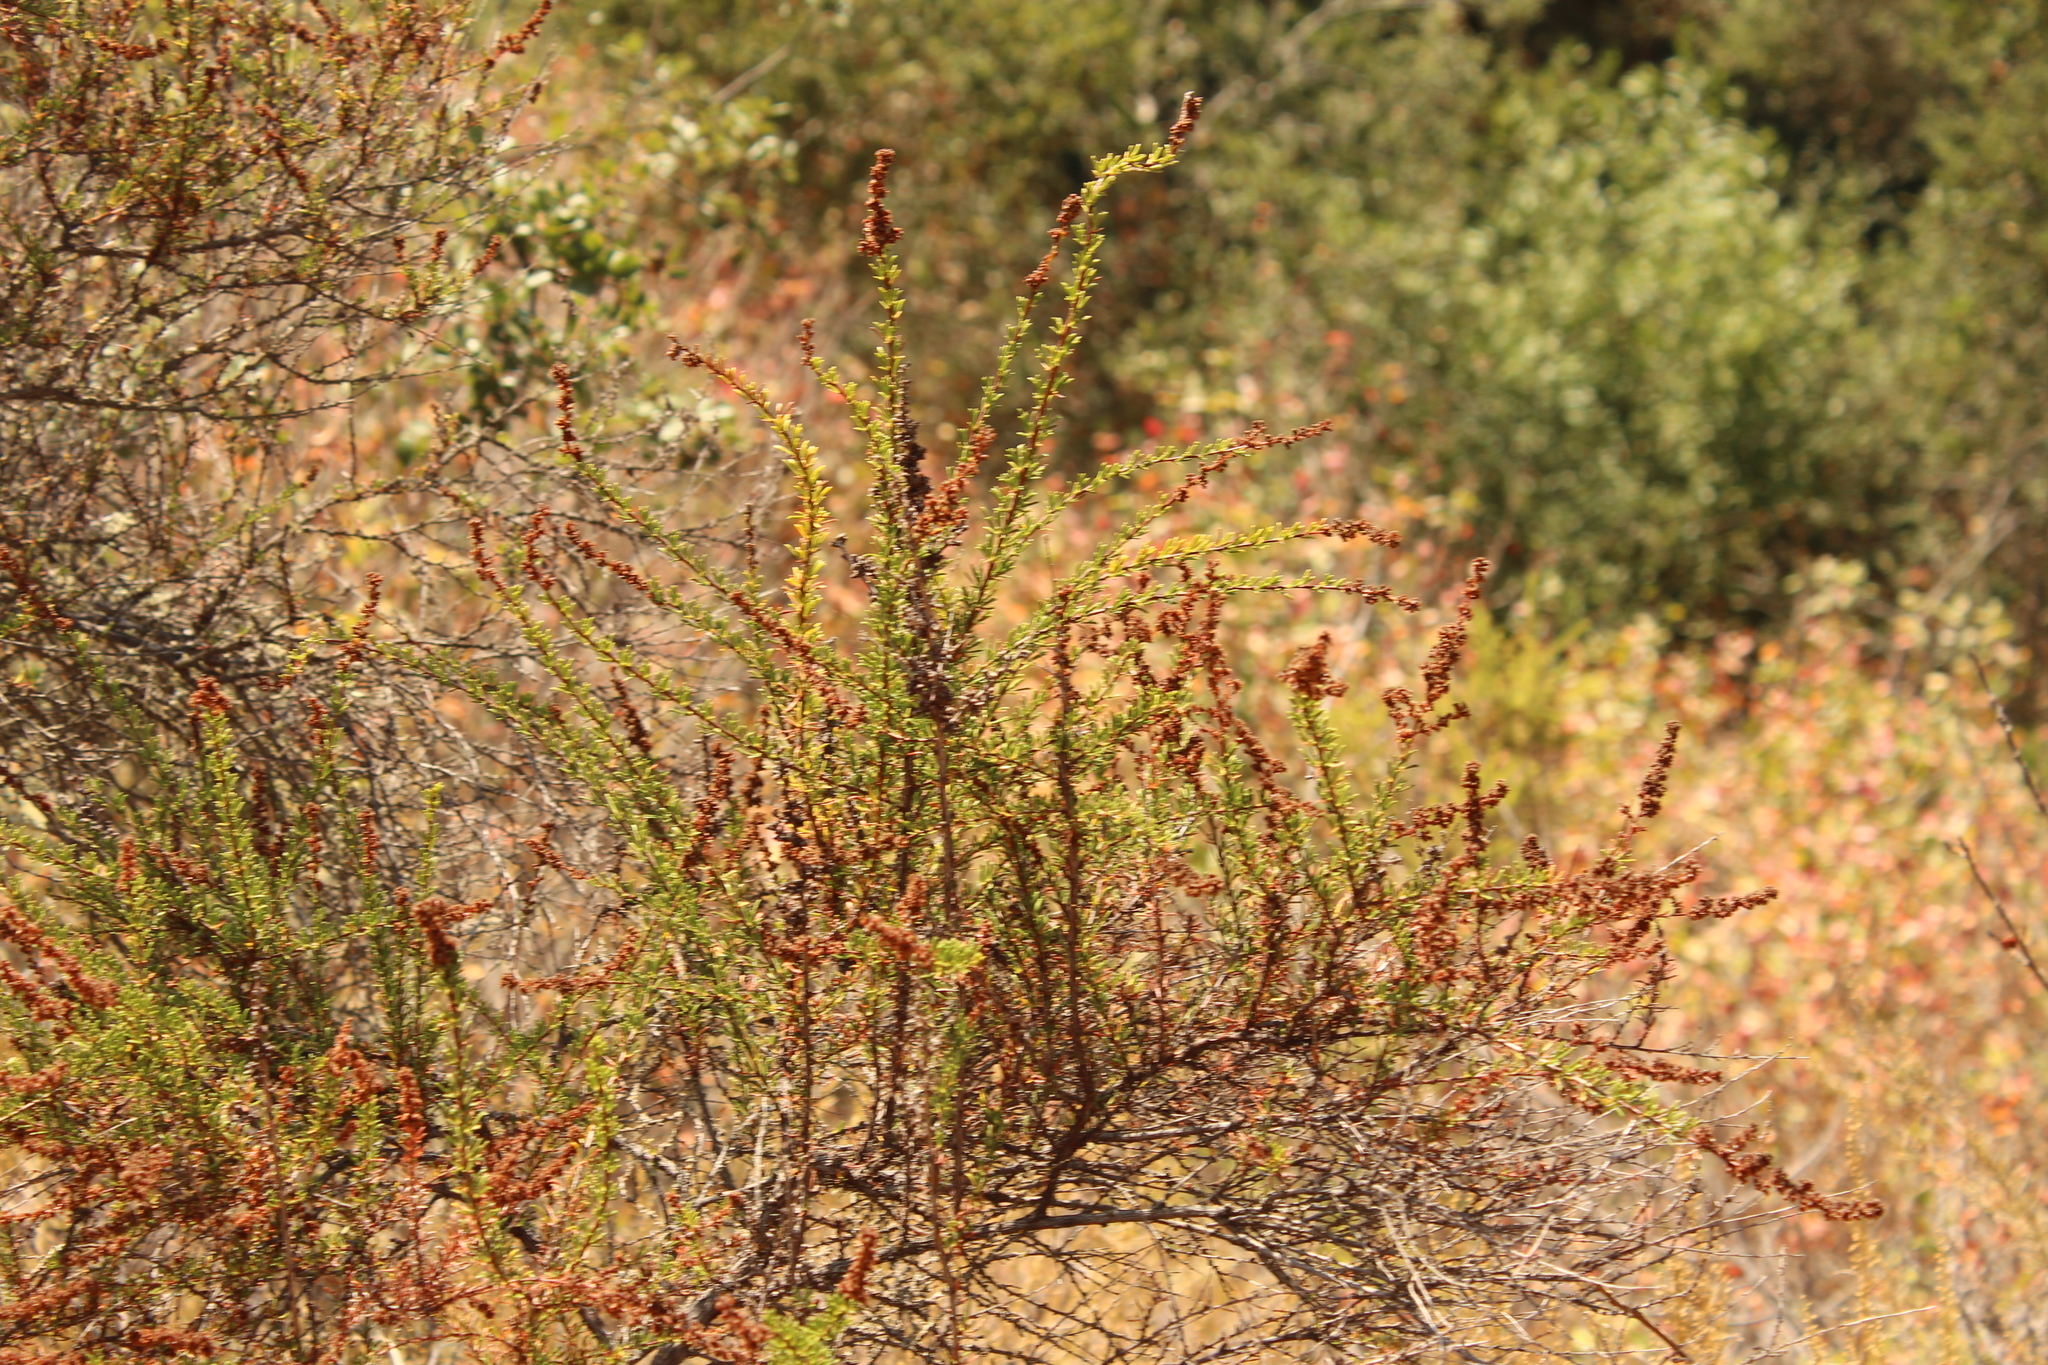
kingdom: Plantae
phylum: Tracheophyta
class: Magnoliopsida
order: Rosales
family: Rosaceae
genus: Adenostoma
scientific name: Adenostoma fasciculatum
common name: Chamise
